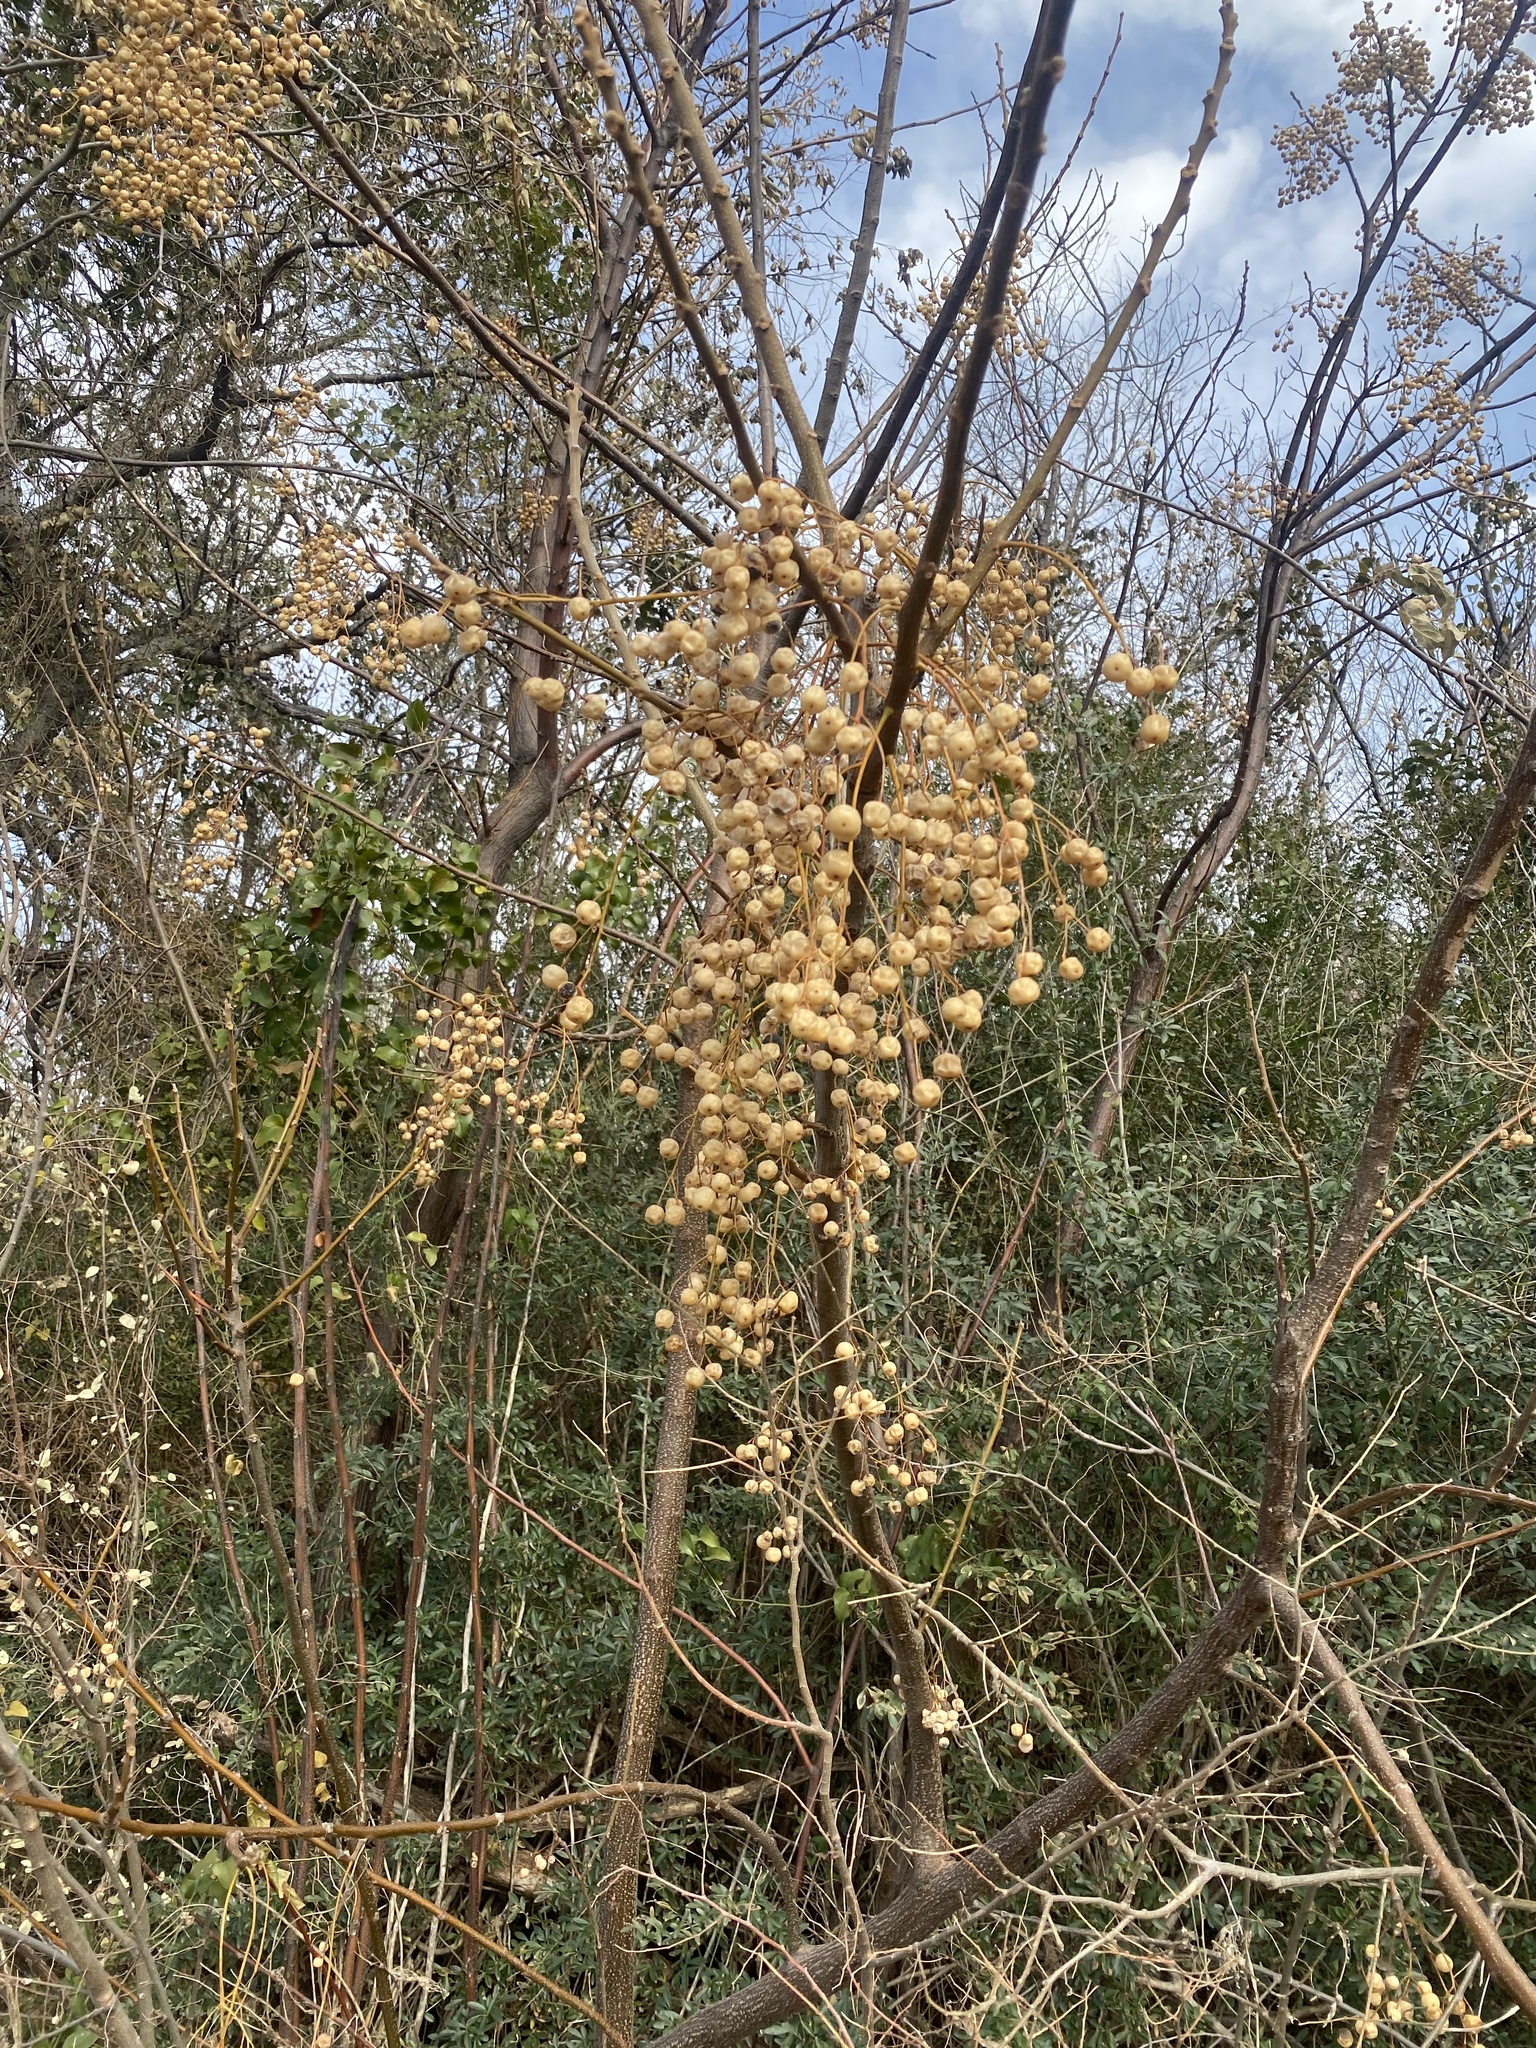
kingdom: Plantae
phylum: Tracheophyta
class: Magnoliopsida
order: Sapindales
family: Meliaceae
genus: Melia
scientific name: Melia azedarach
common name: Chinaberrytree
